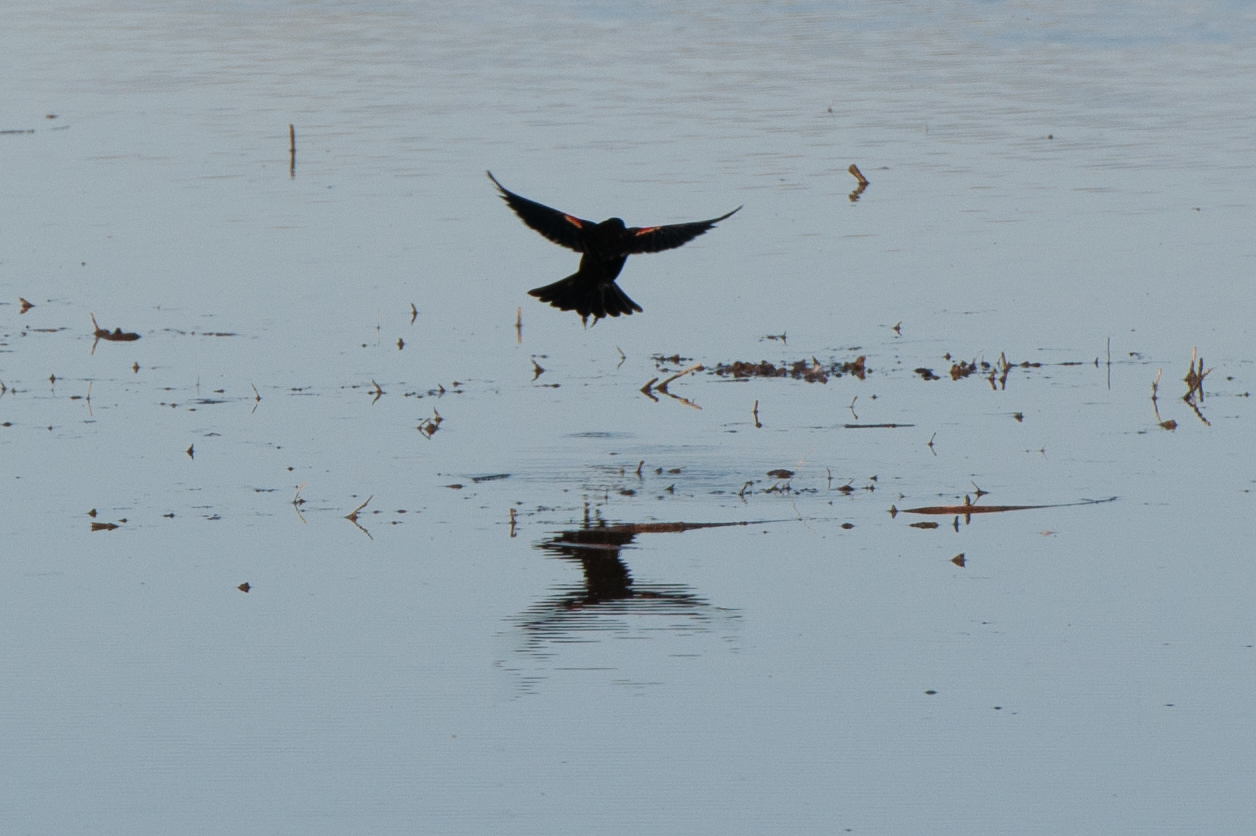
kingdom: Animalia
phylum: Chordata
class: Aves
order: Passeriformes
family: Icteridae
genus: Agelaius
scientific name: Agelaius phoeniceus
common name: Red-winged blackbird
